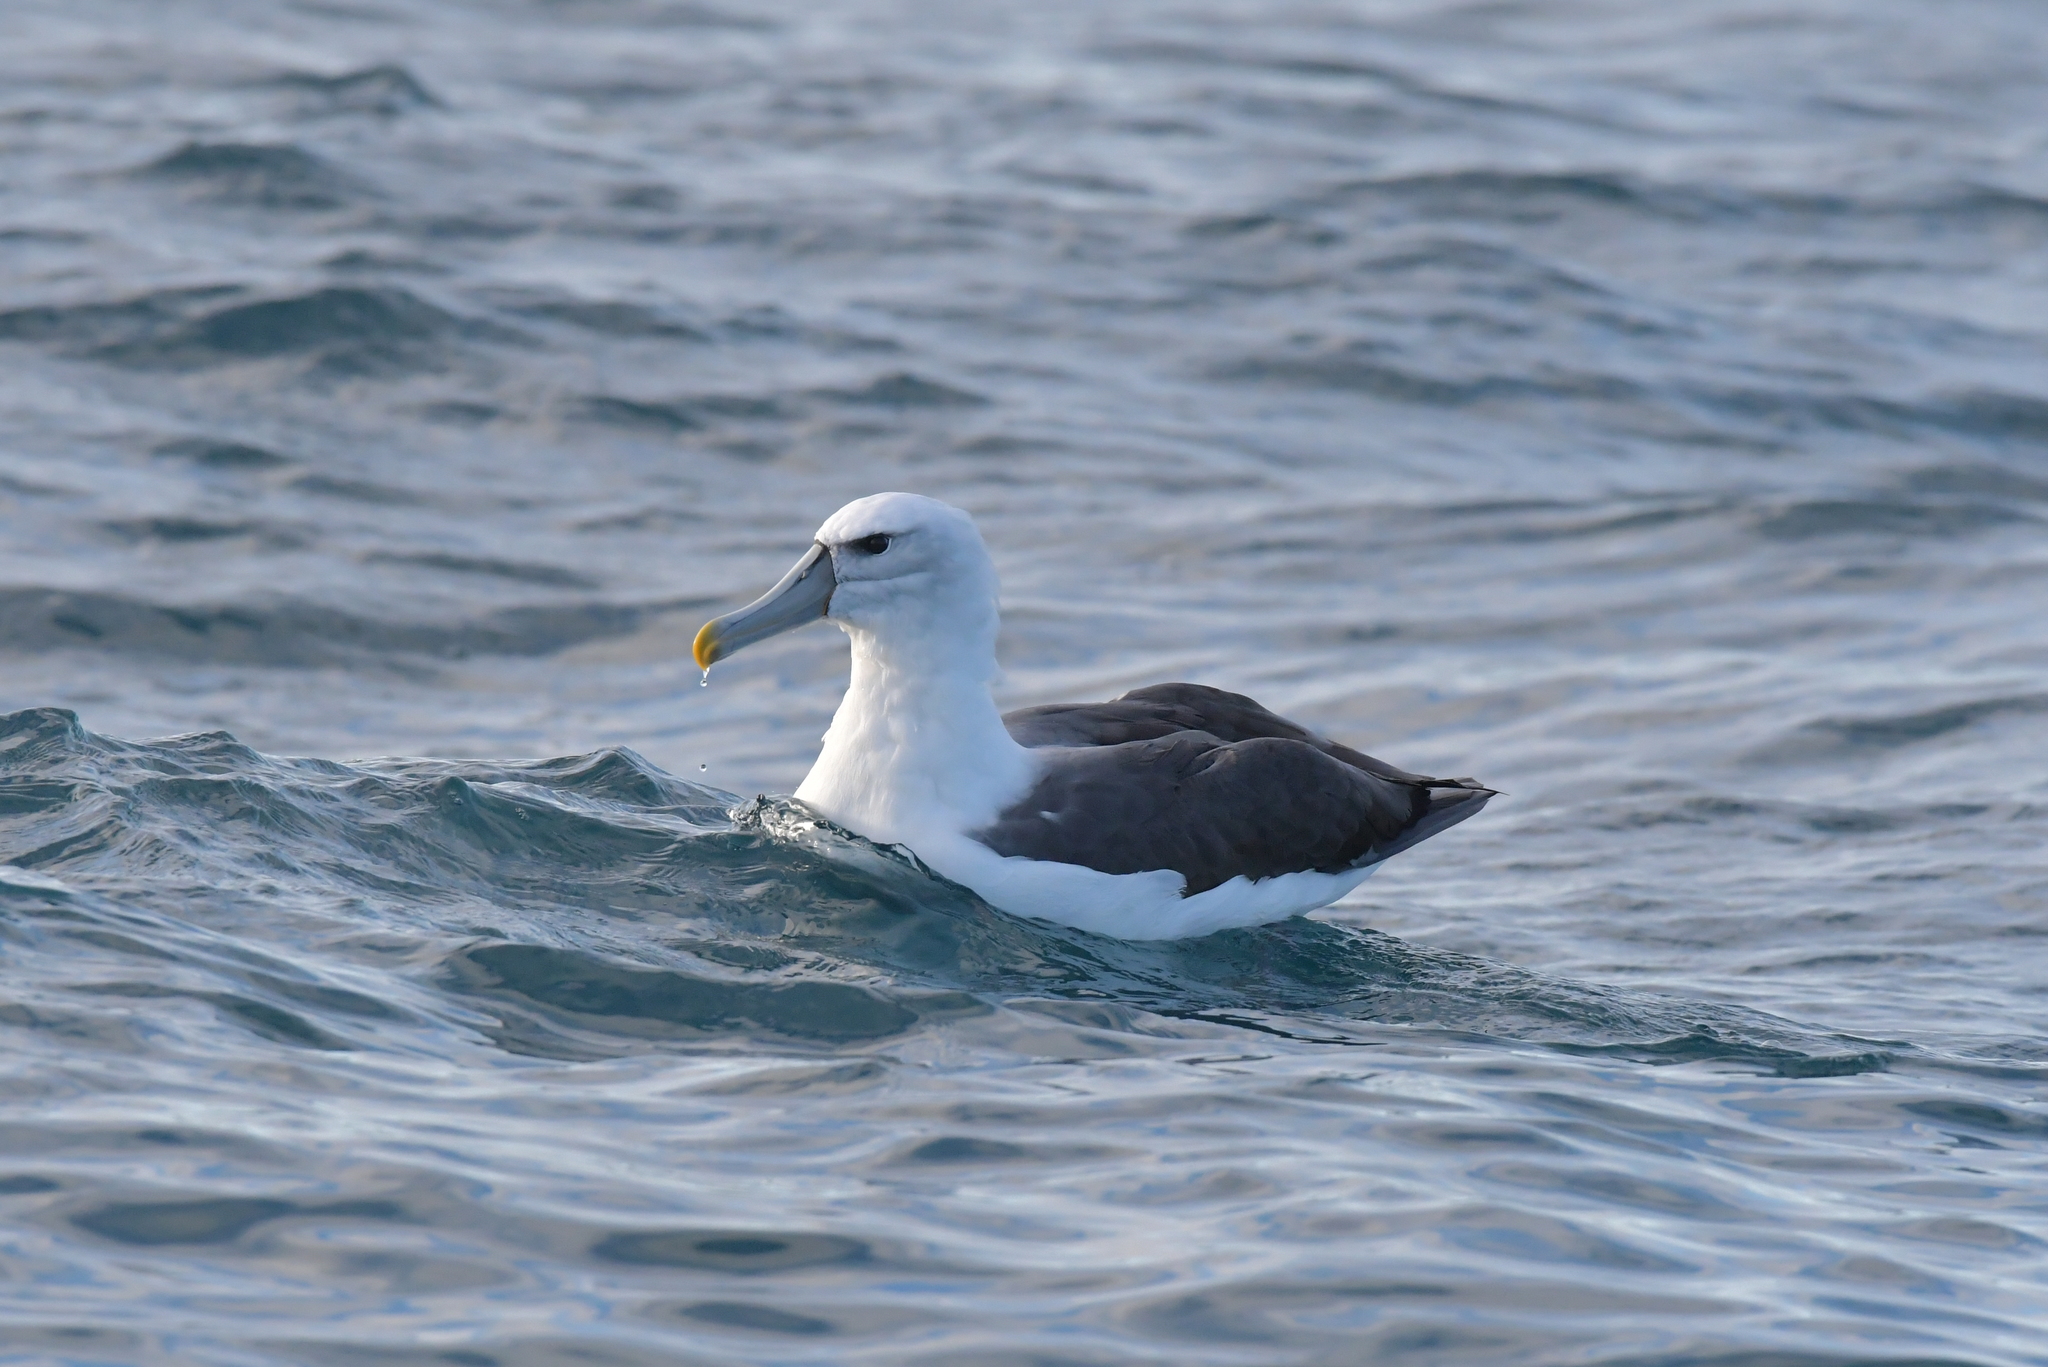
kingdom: Animalia
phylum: Chordata
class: Aves
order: Procellariiformes
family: Diomedeidae
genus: Thalassarche
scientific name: Thalassarche cauta
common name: Shy albatross
